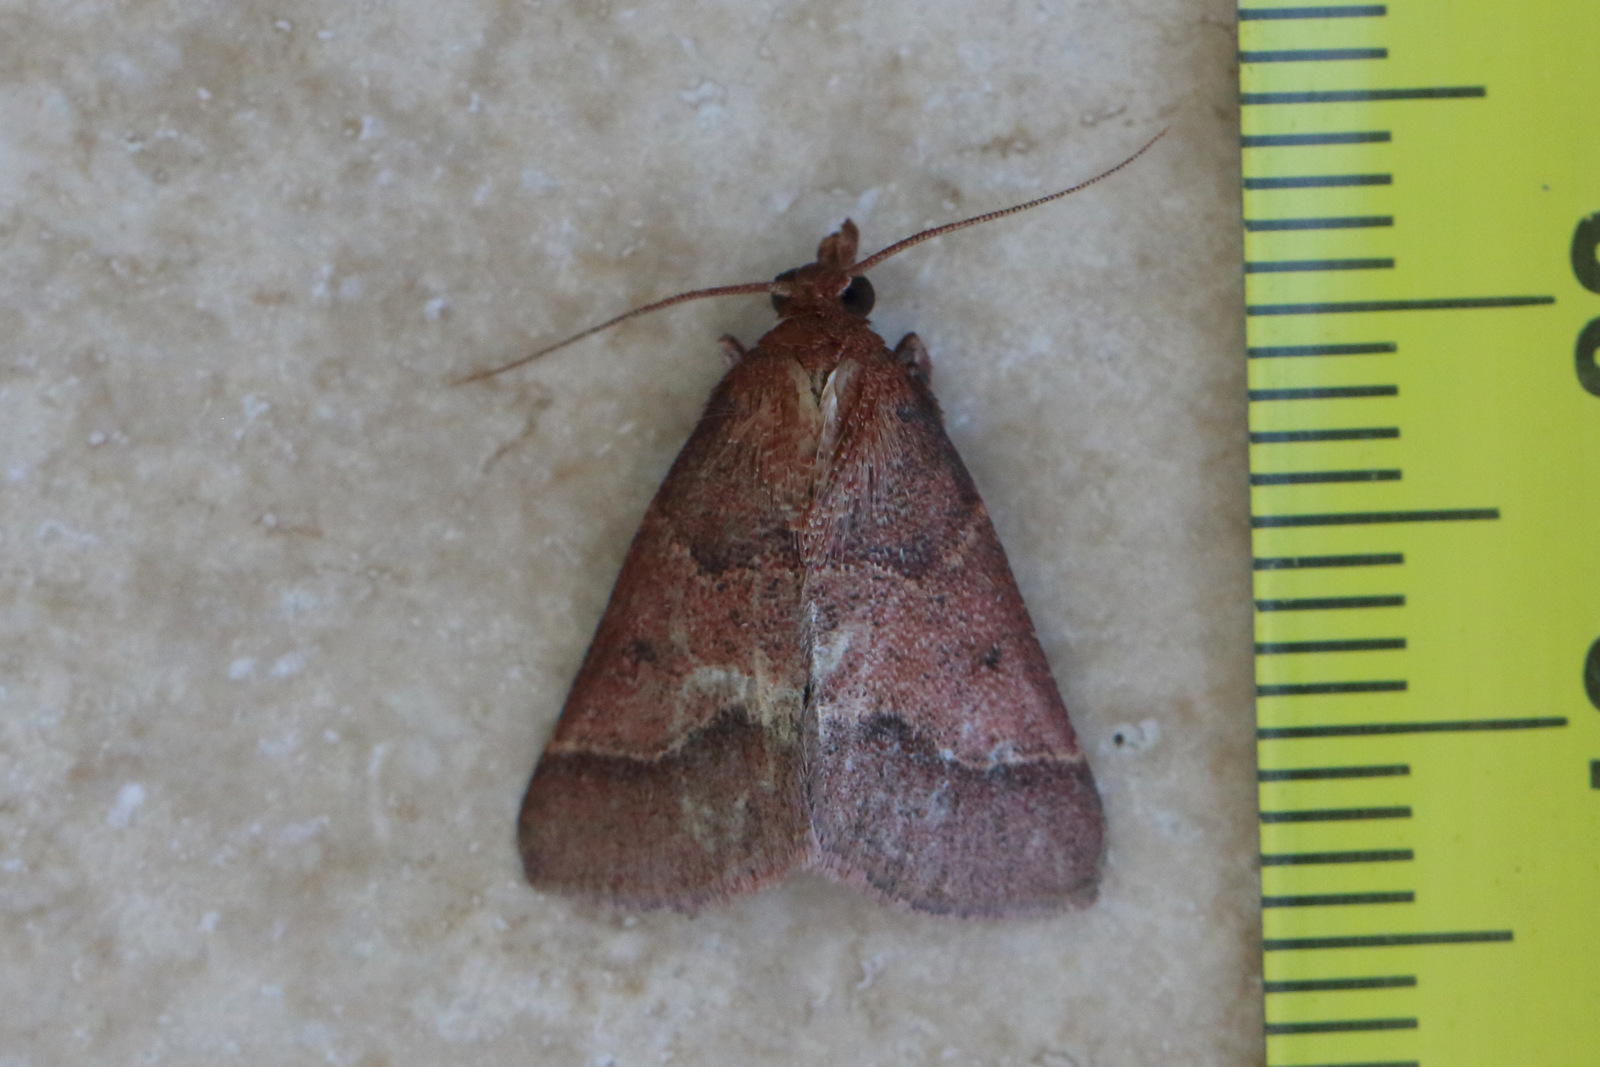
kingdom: Animalia
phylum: Arthropoda
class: Insecta
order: Lepidoptera
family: Pyralidae
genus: Arippara
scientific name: Arippara disticha
